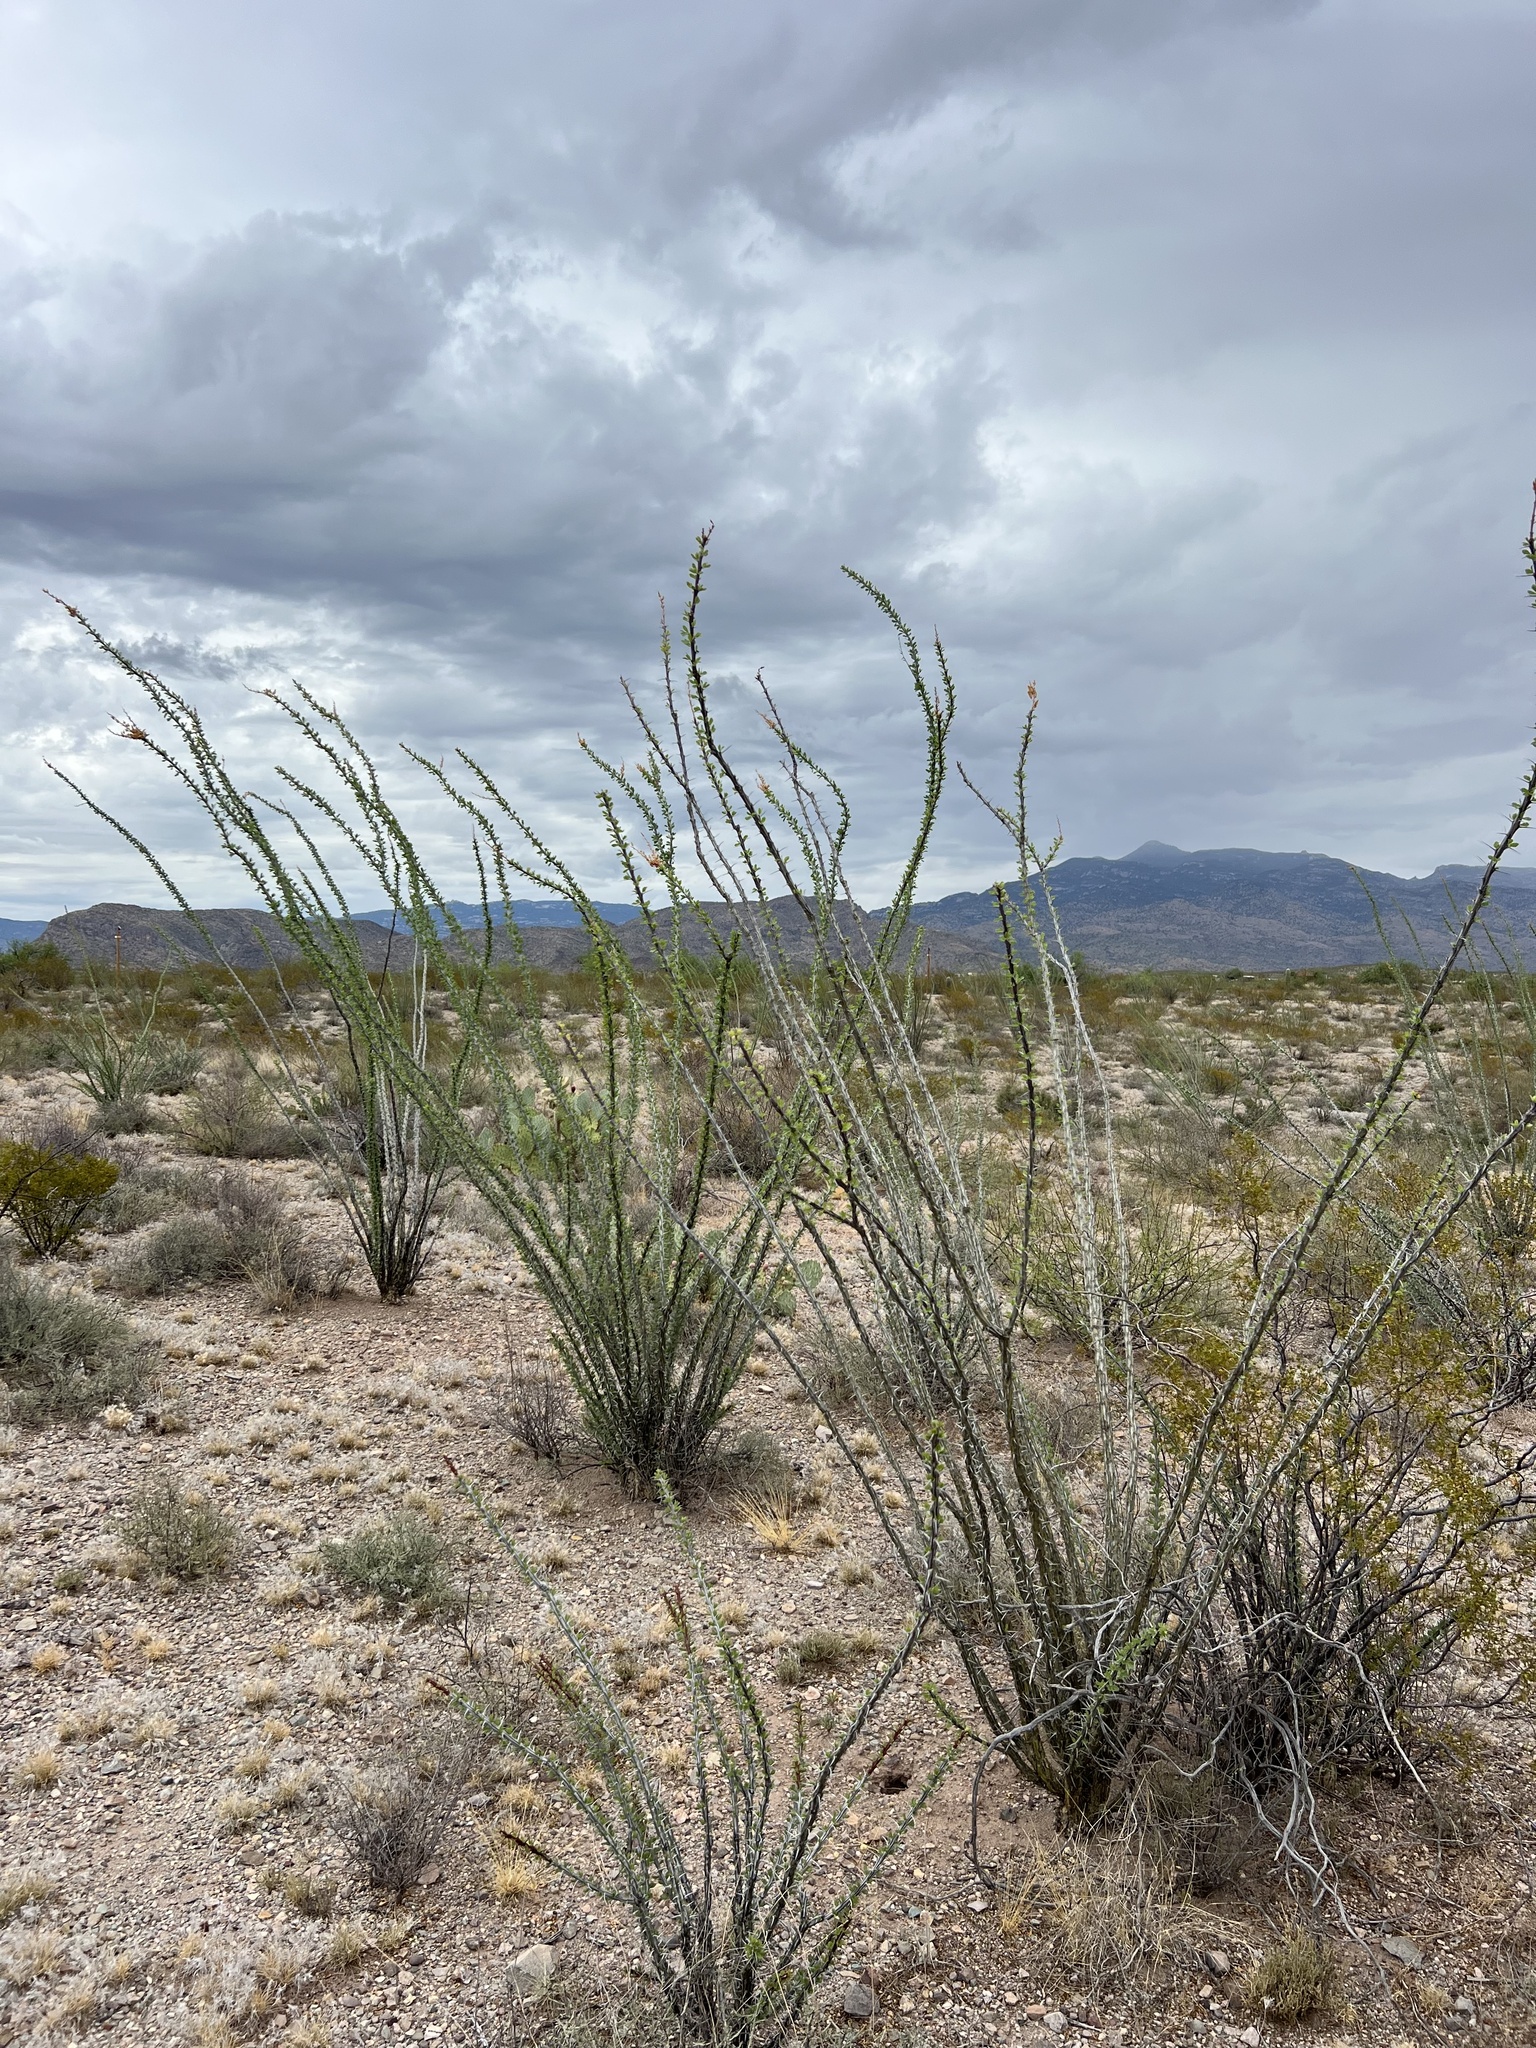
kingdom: Plantae
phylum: Tracheophyta
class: Magnoliopsida
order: Ericales
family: Fouquieriaceae
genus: Fouquieria
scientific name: Fouquieria splendens
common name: Vine-cactus
